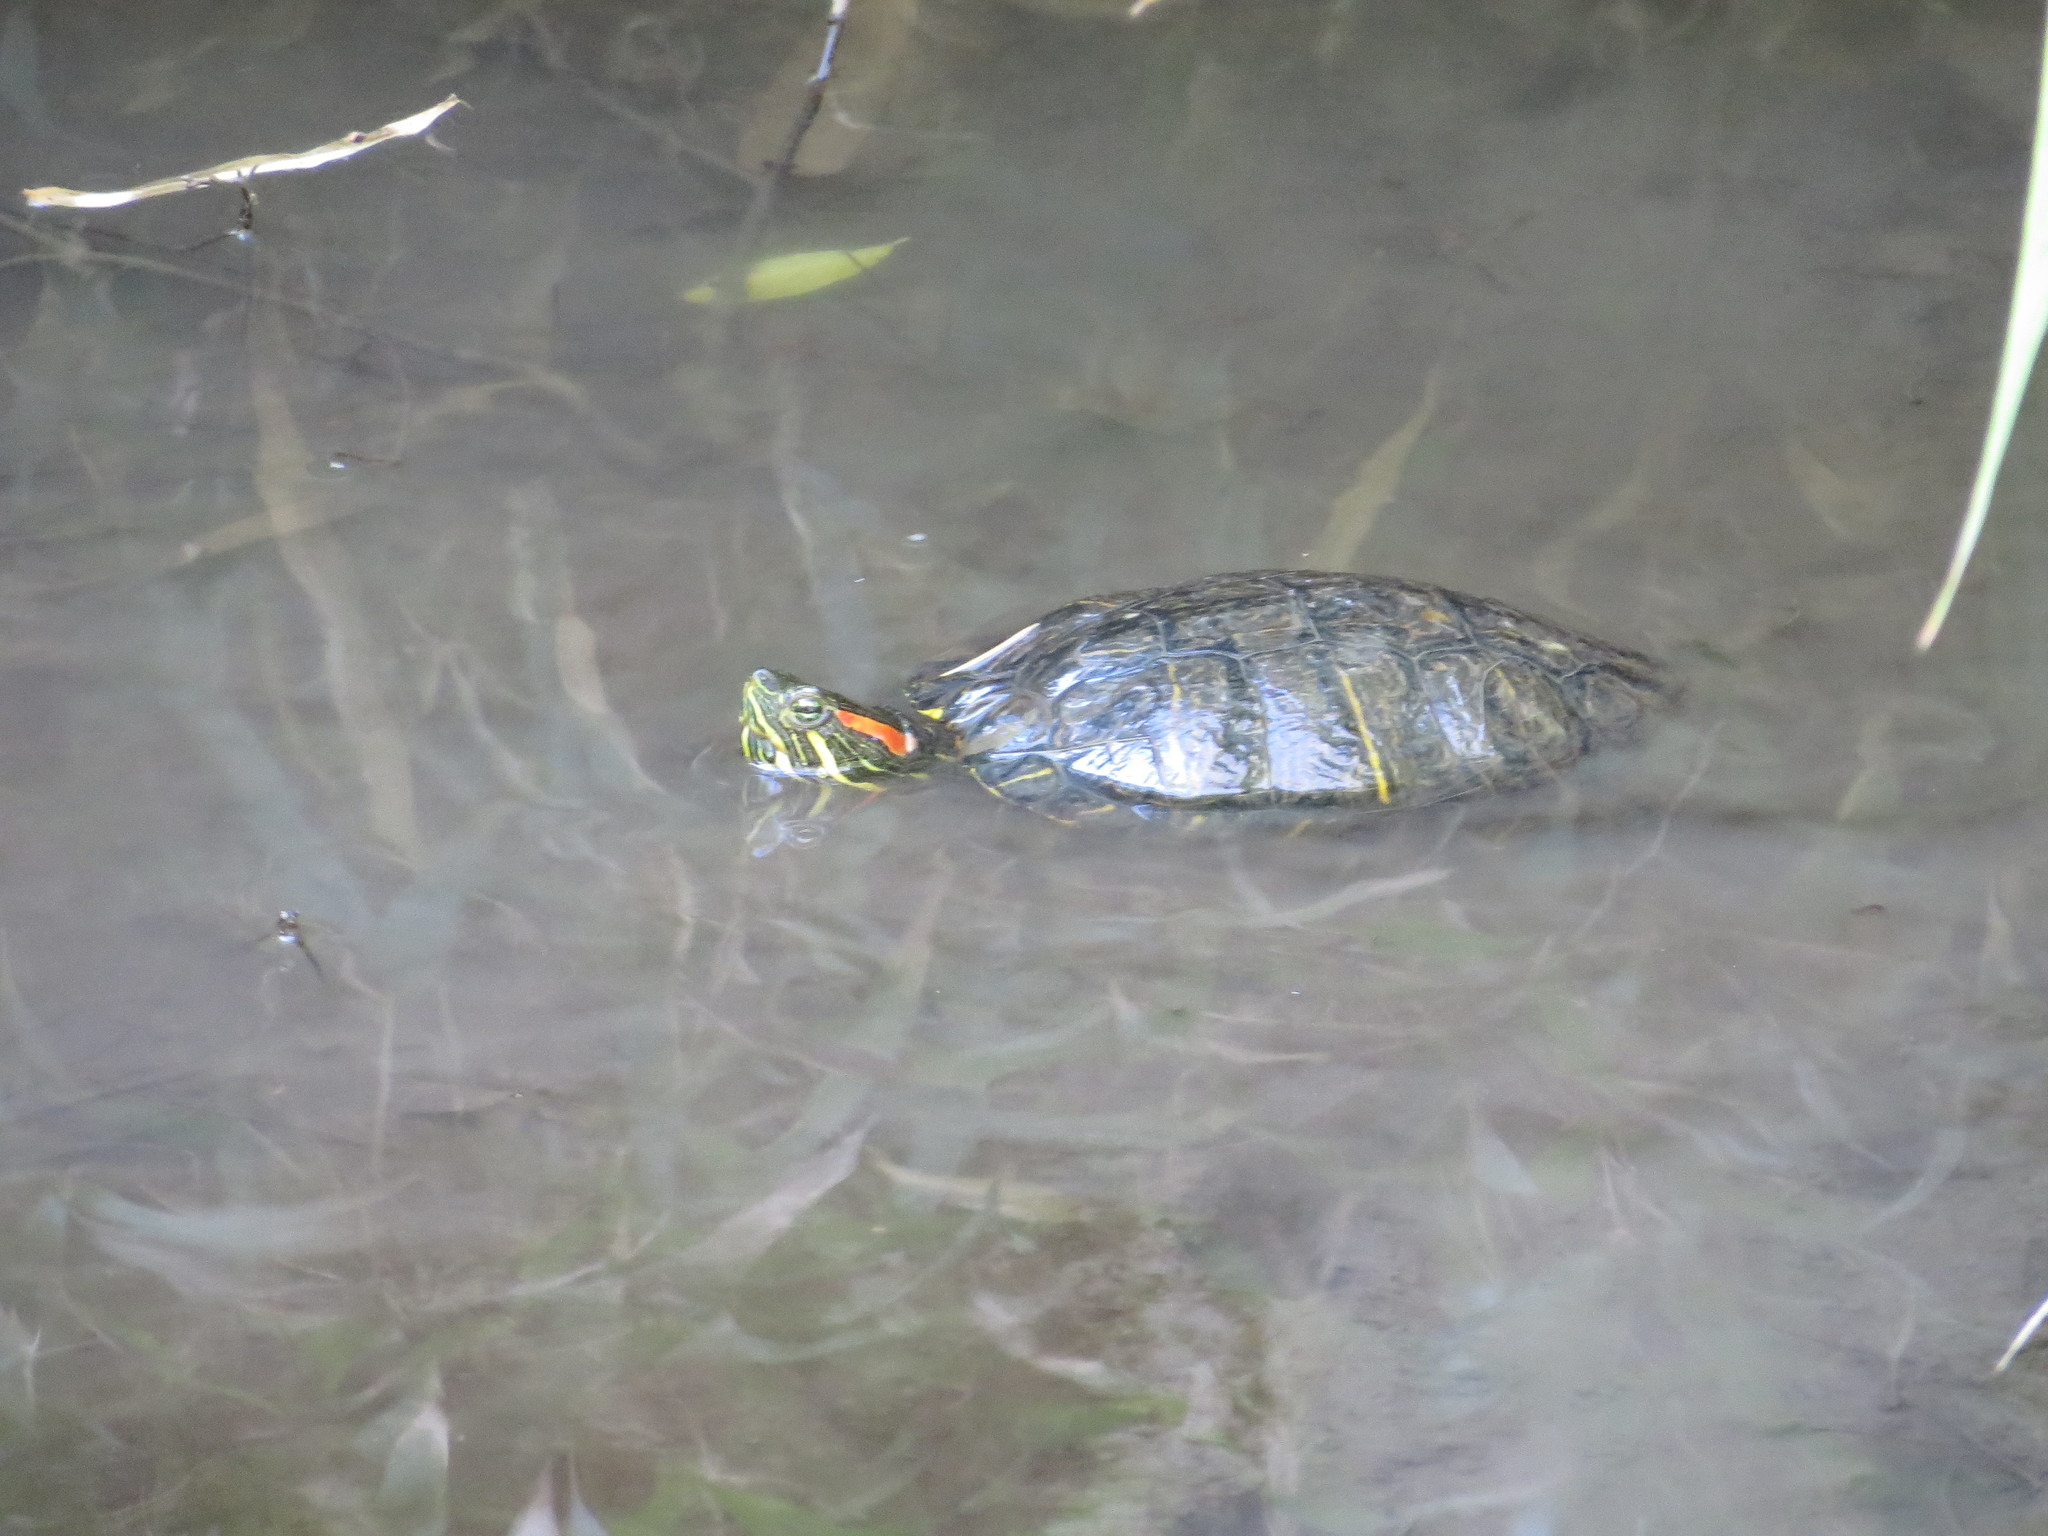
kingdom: Animalia
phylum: Chordata
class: Testudines
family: Emydidae
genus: Trachemys
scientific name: Trachemys scripta
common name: Slider
